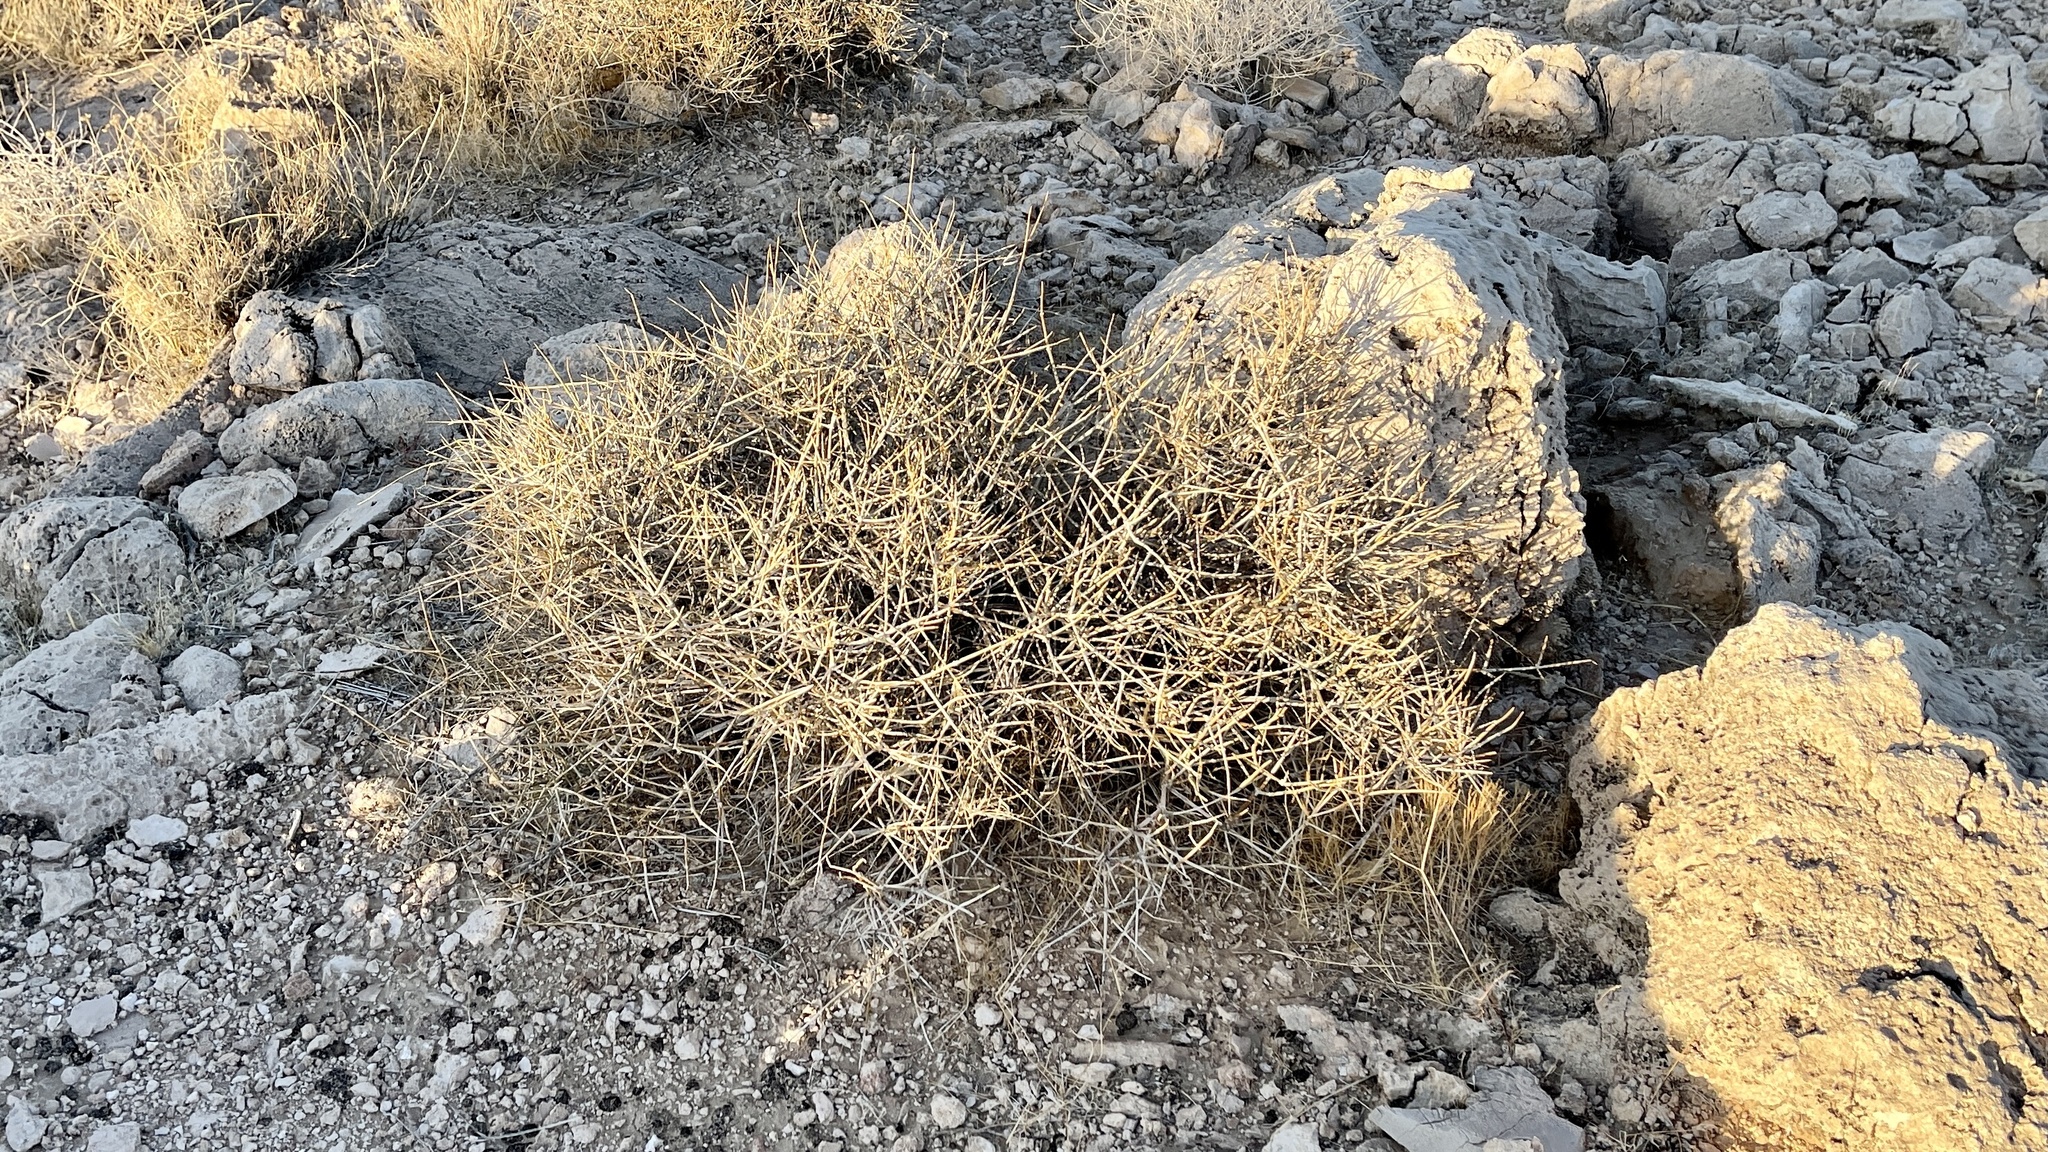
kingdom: Plantae
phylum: Tracheophyta
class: Gnetopsida
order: Ephedrales
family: Ephedraceae
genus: Ephedra
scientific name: Ephedra nevadensis
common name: Gray ephedra
